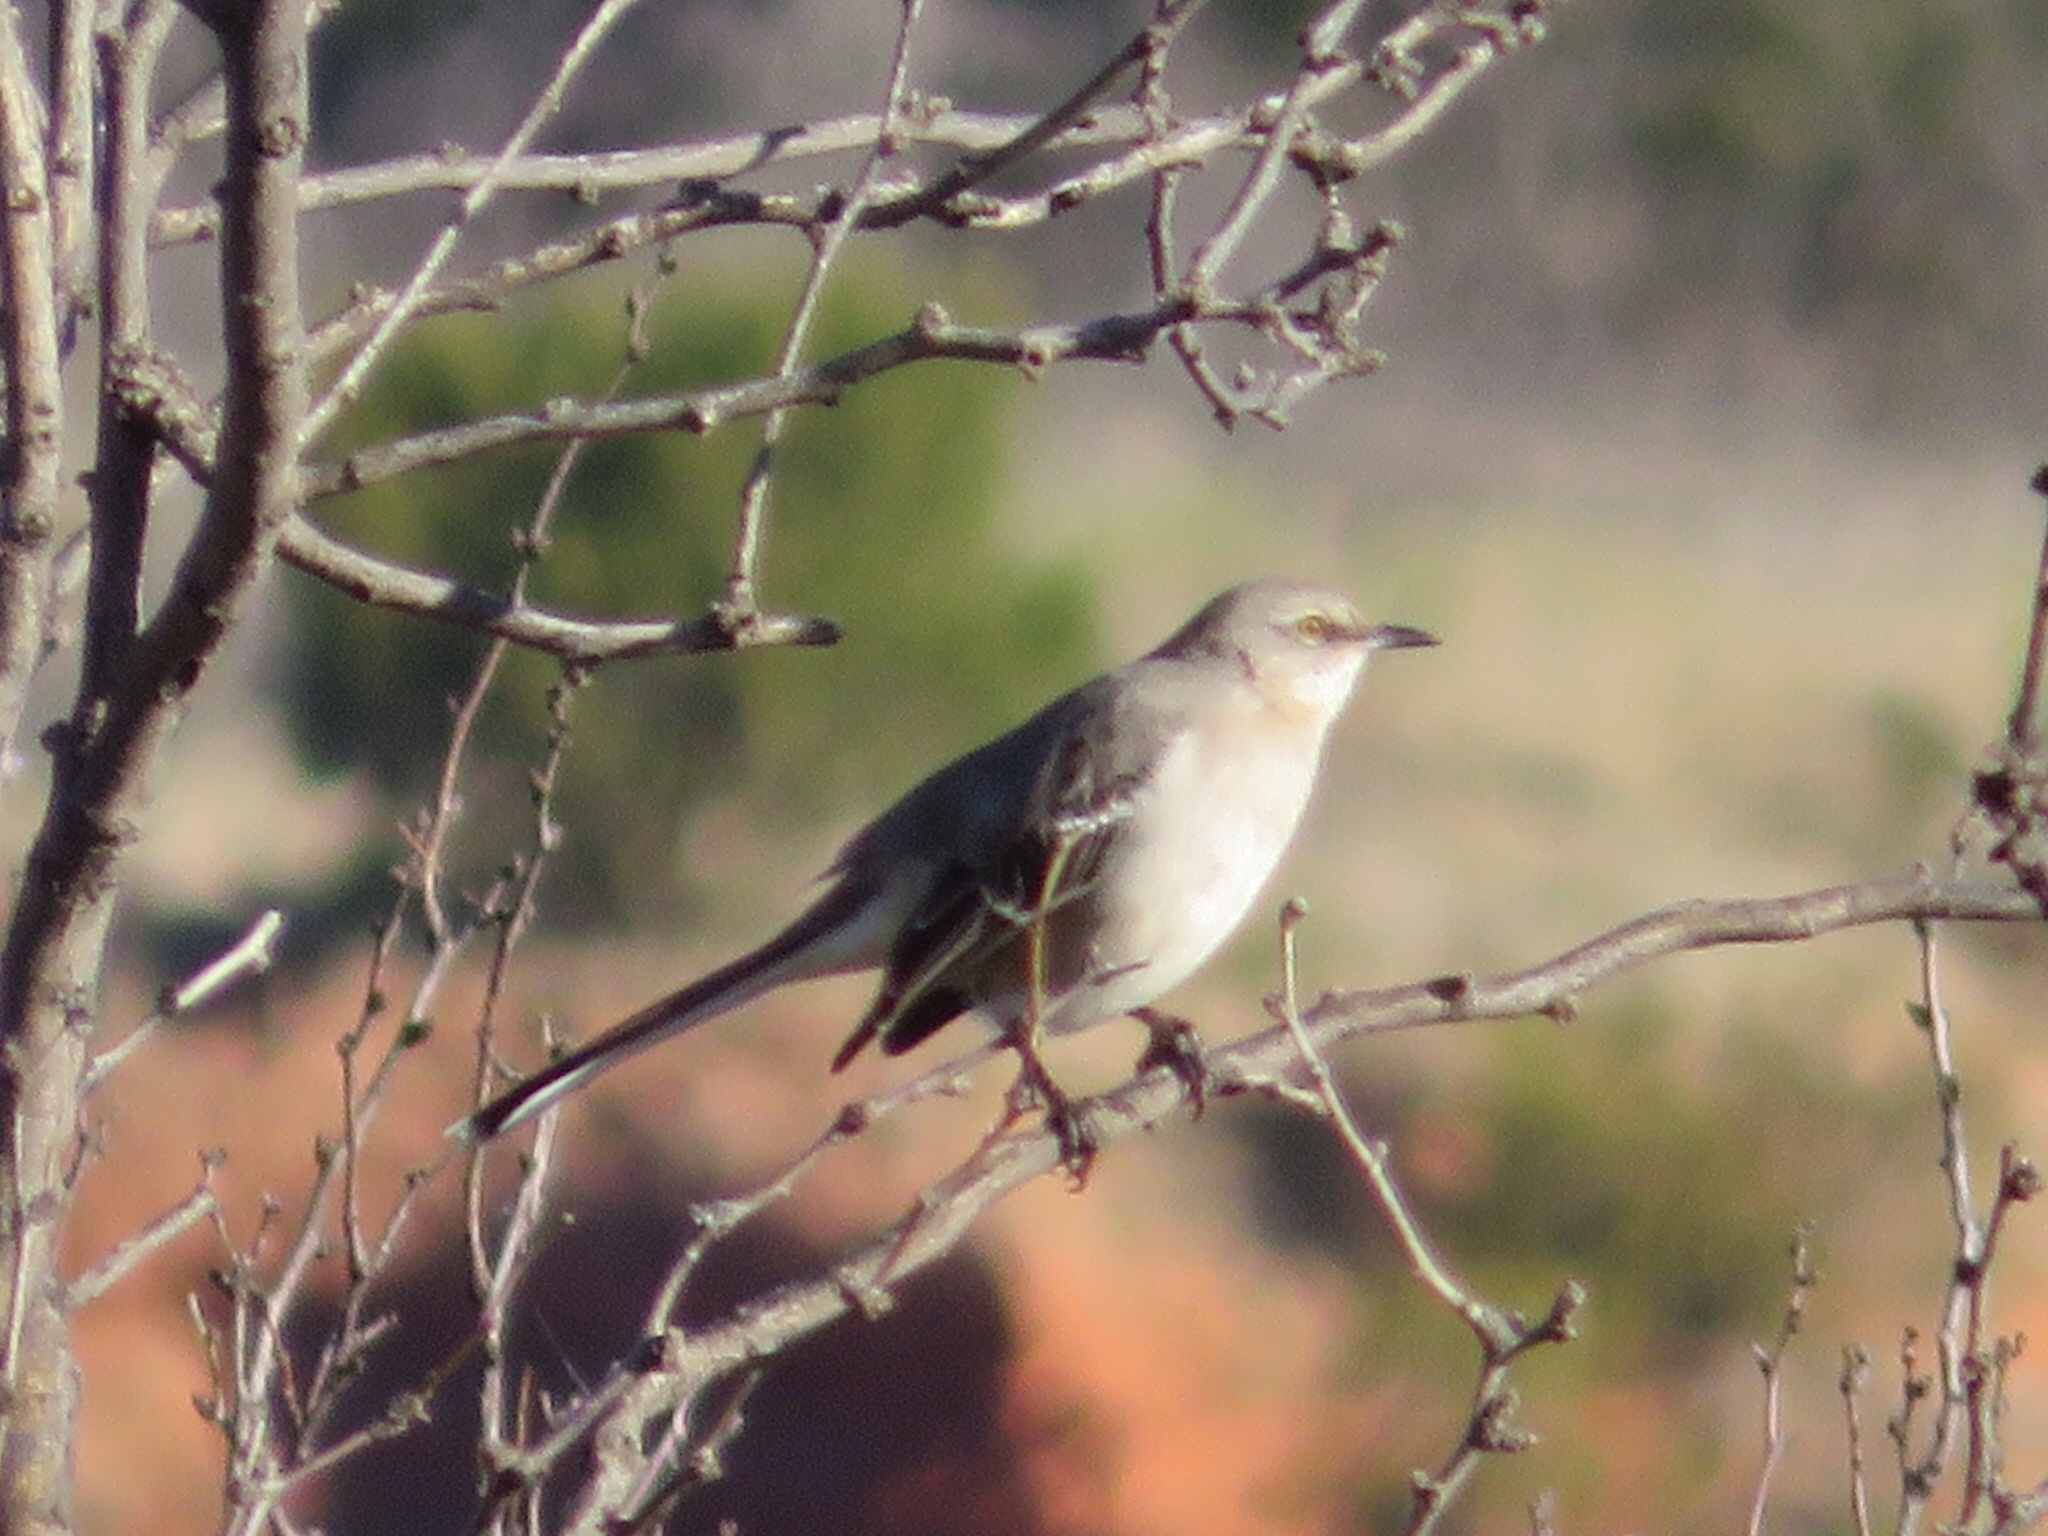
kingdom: Animalia
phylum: Chordata
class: Aves
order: Passeriformes
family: Mimidae
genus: Mimus
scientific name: Mimus polyglottos
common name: Northern mockingbird
